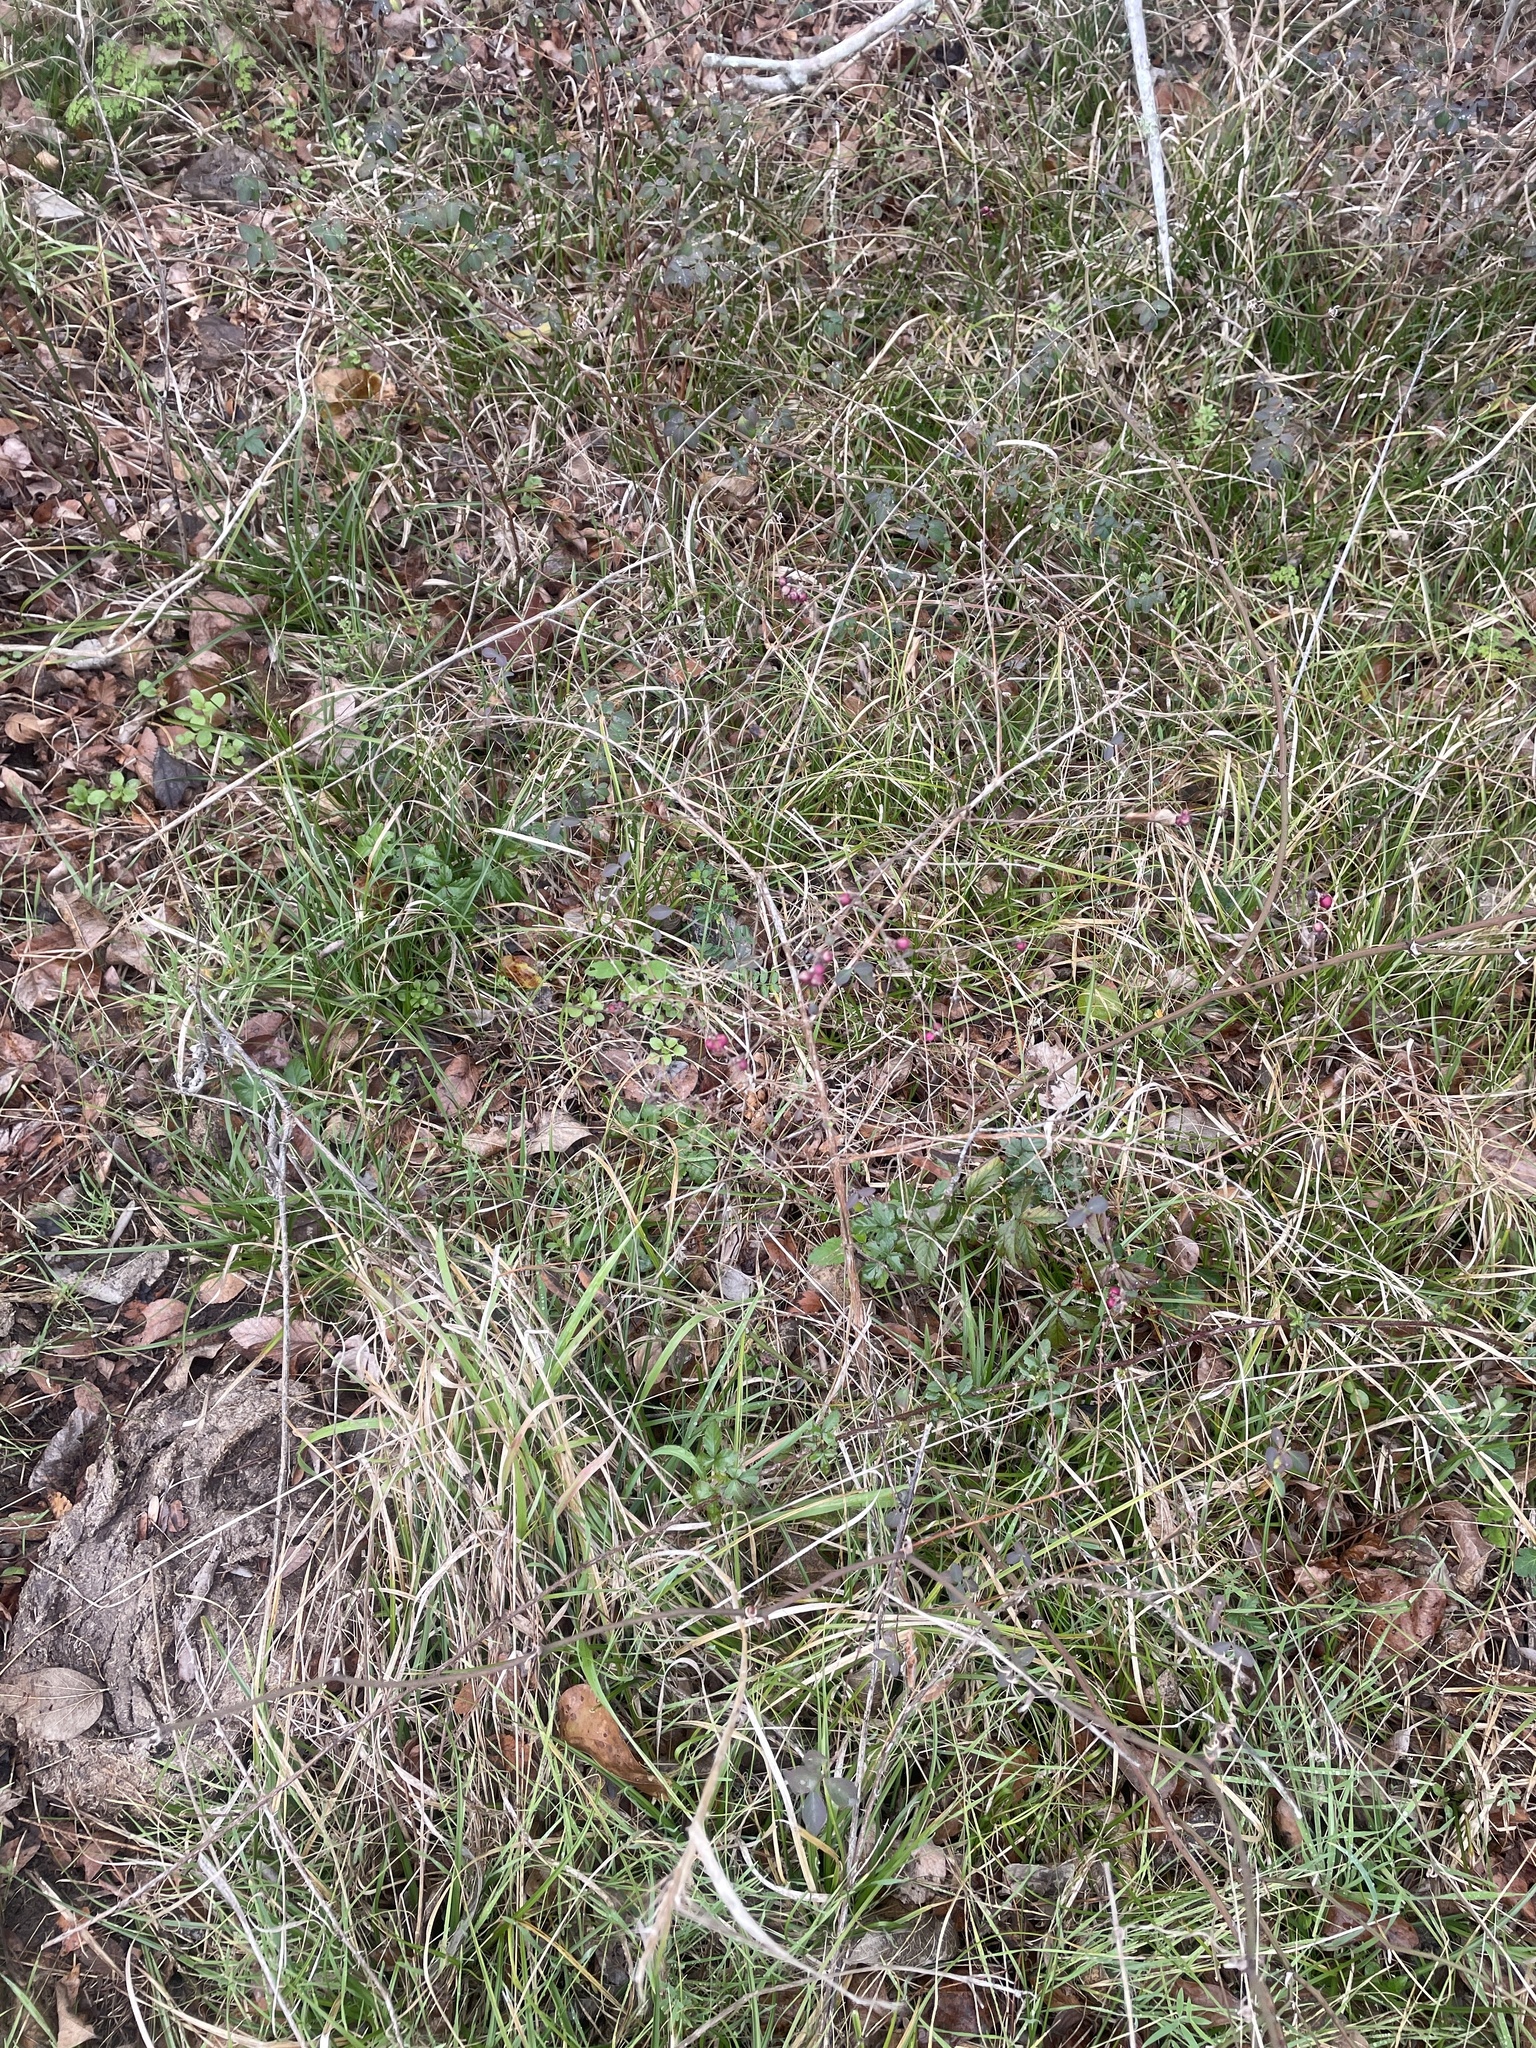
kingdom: Plantae
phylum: Tracheophyta
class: Magnoliopsida
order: Dipsacales
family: Caprifoliaceae
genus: Symphoricarpos
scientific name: Symphoricarpos orbiculatus
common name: Coralberry
